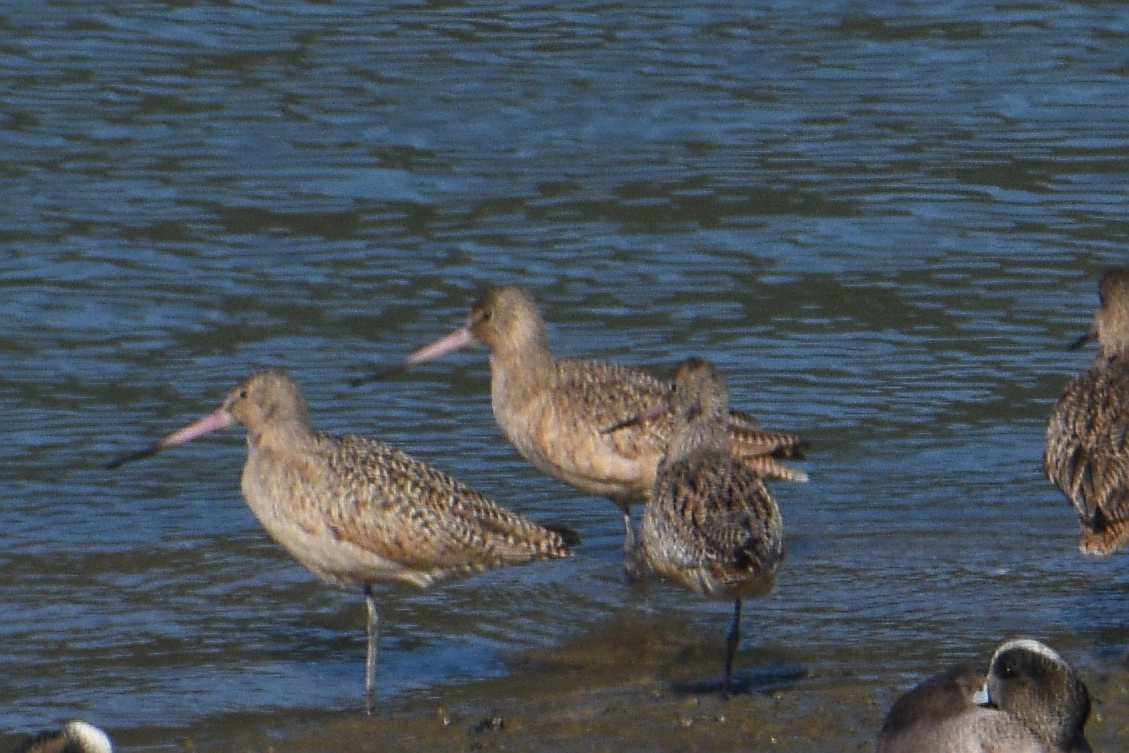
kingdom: Animalia
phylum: Chordata
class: Aves
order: Charadriiformes
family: Scolopacidae
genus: Limosa
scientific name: Limosa fedoa
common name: Marbled godwit
